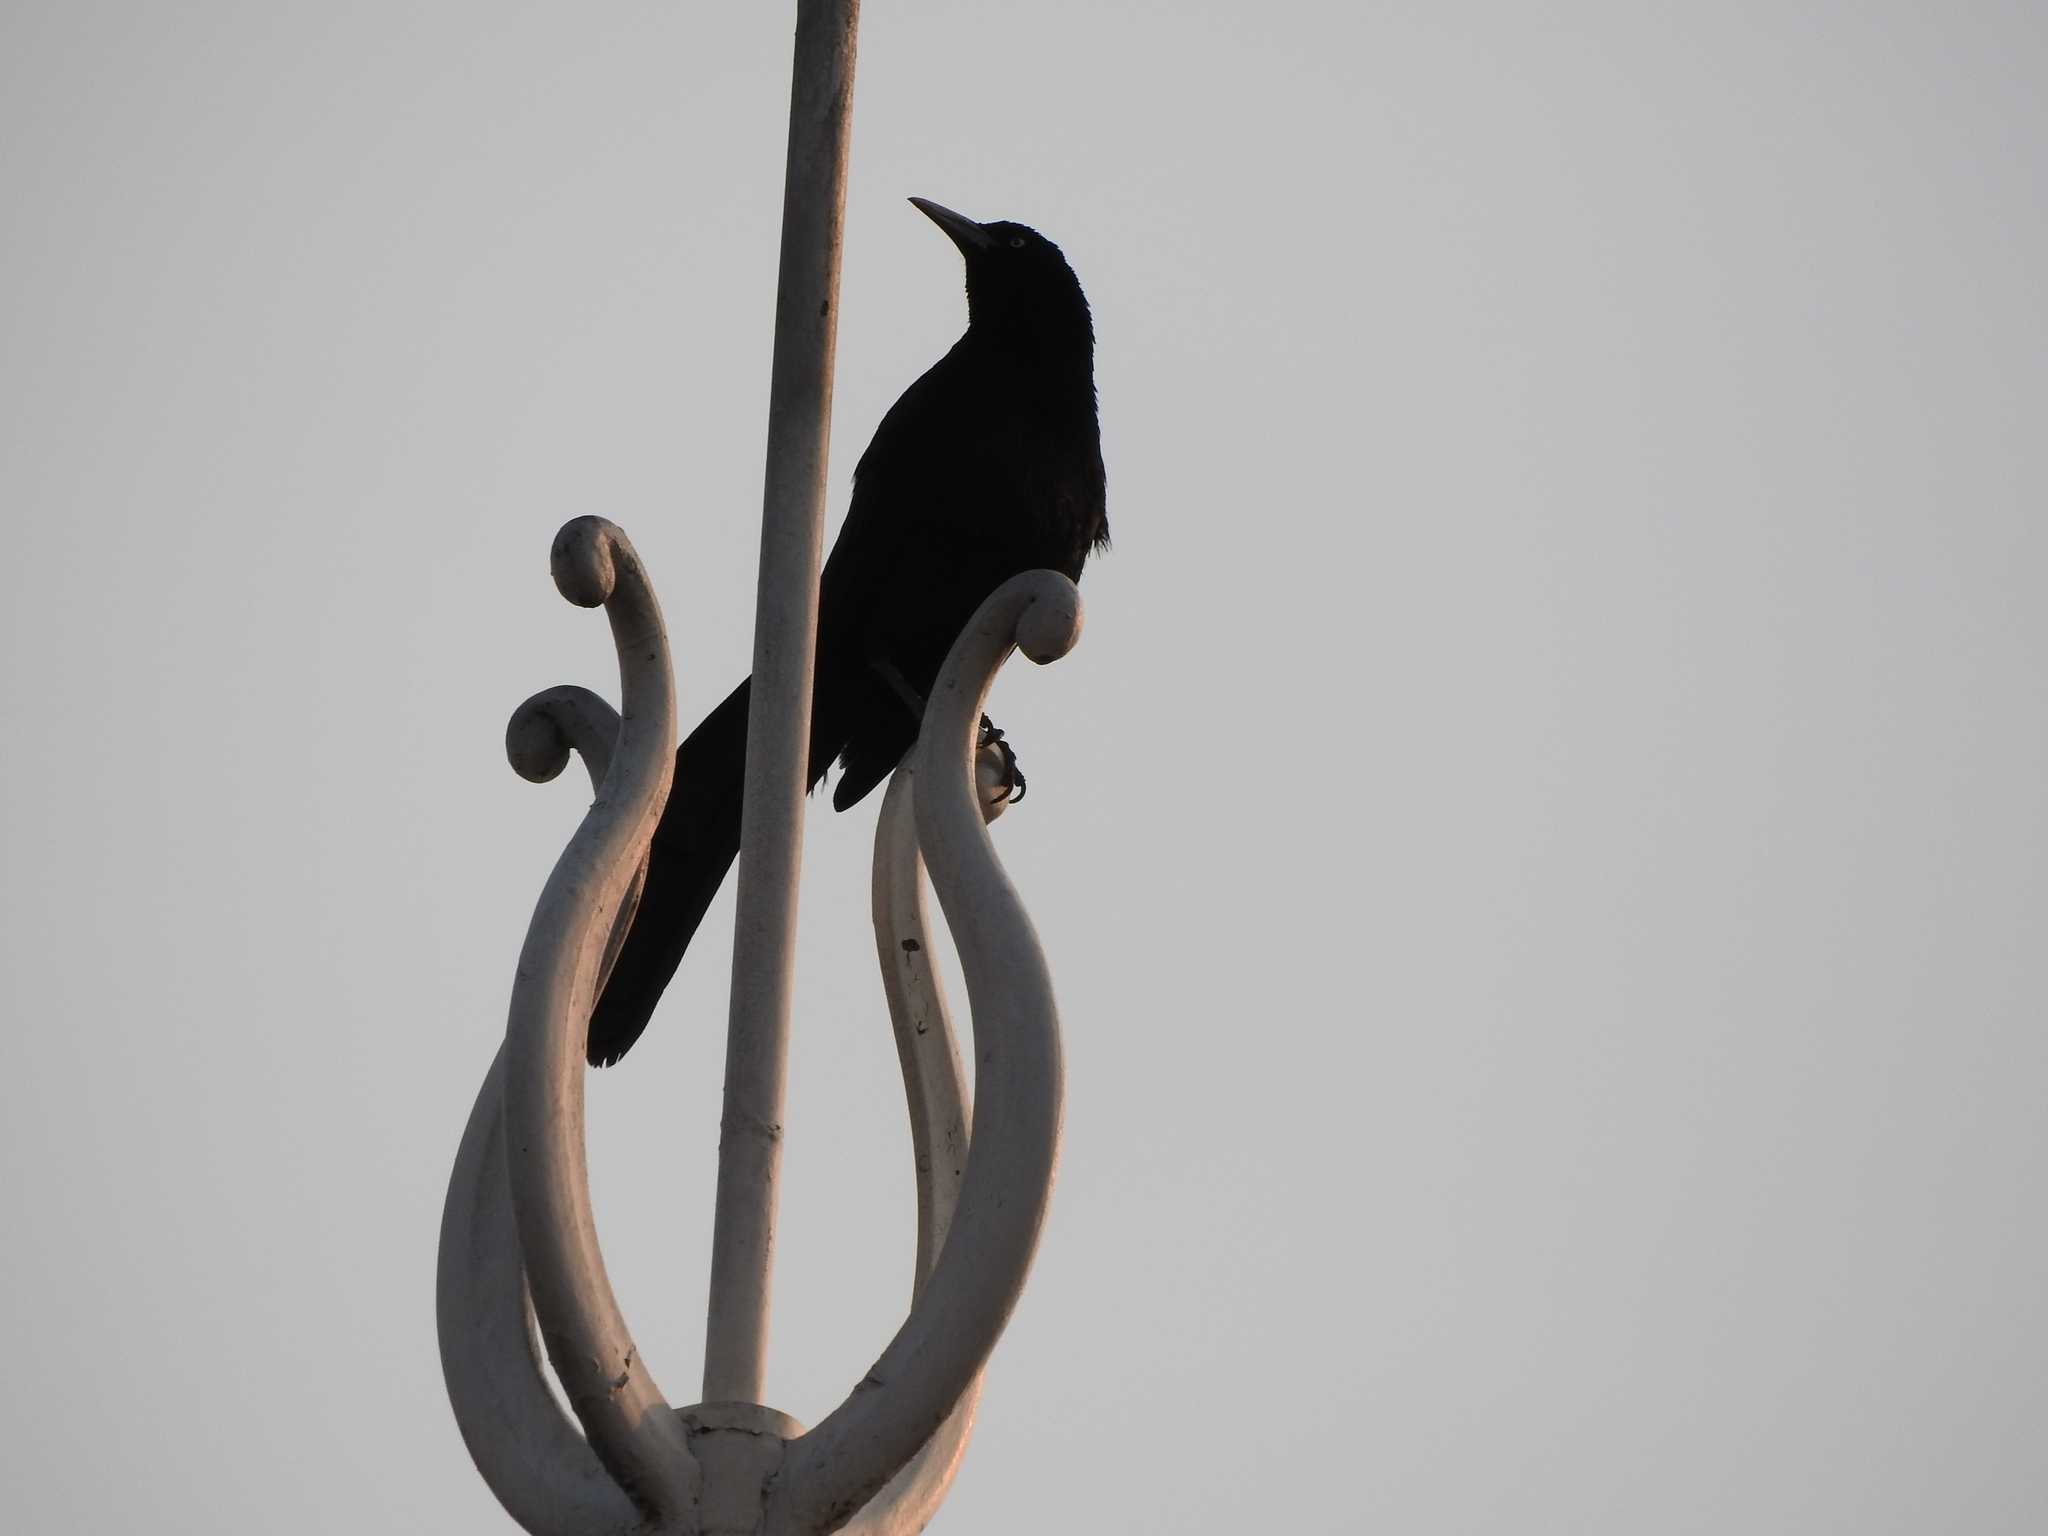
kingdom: Animalia
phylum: Chordata
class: Aves
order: Passeriformes
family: Icteridae
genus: Quiscalus
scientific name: Quiscalus mexicanus
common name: Great-tailed grackle
